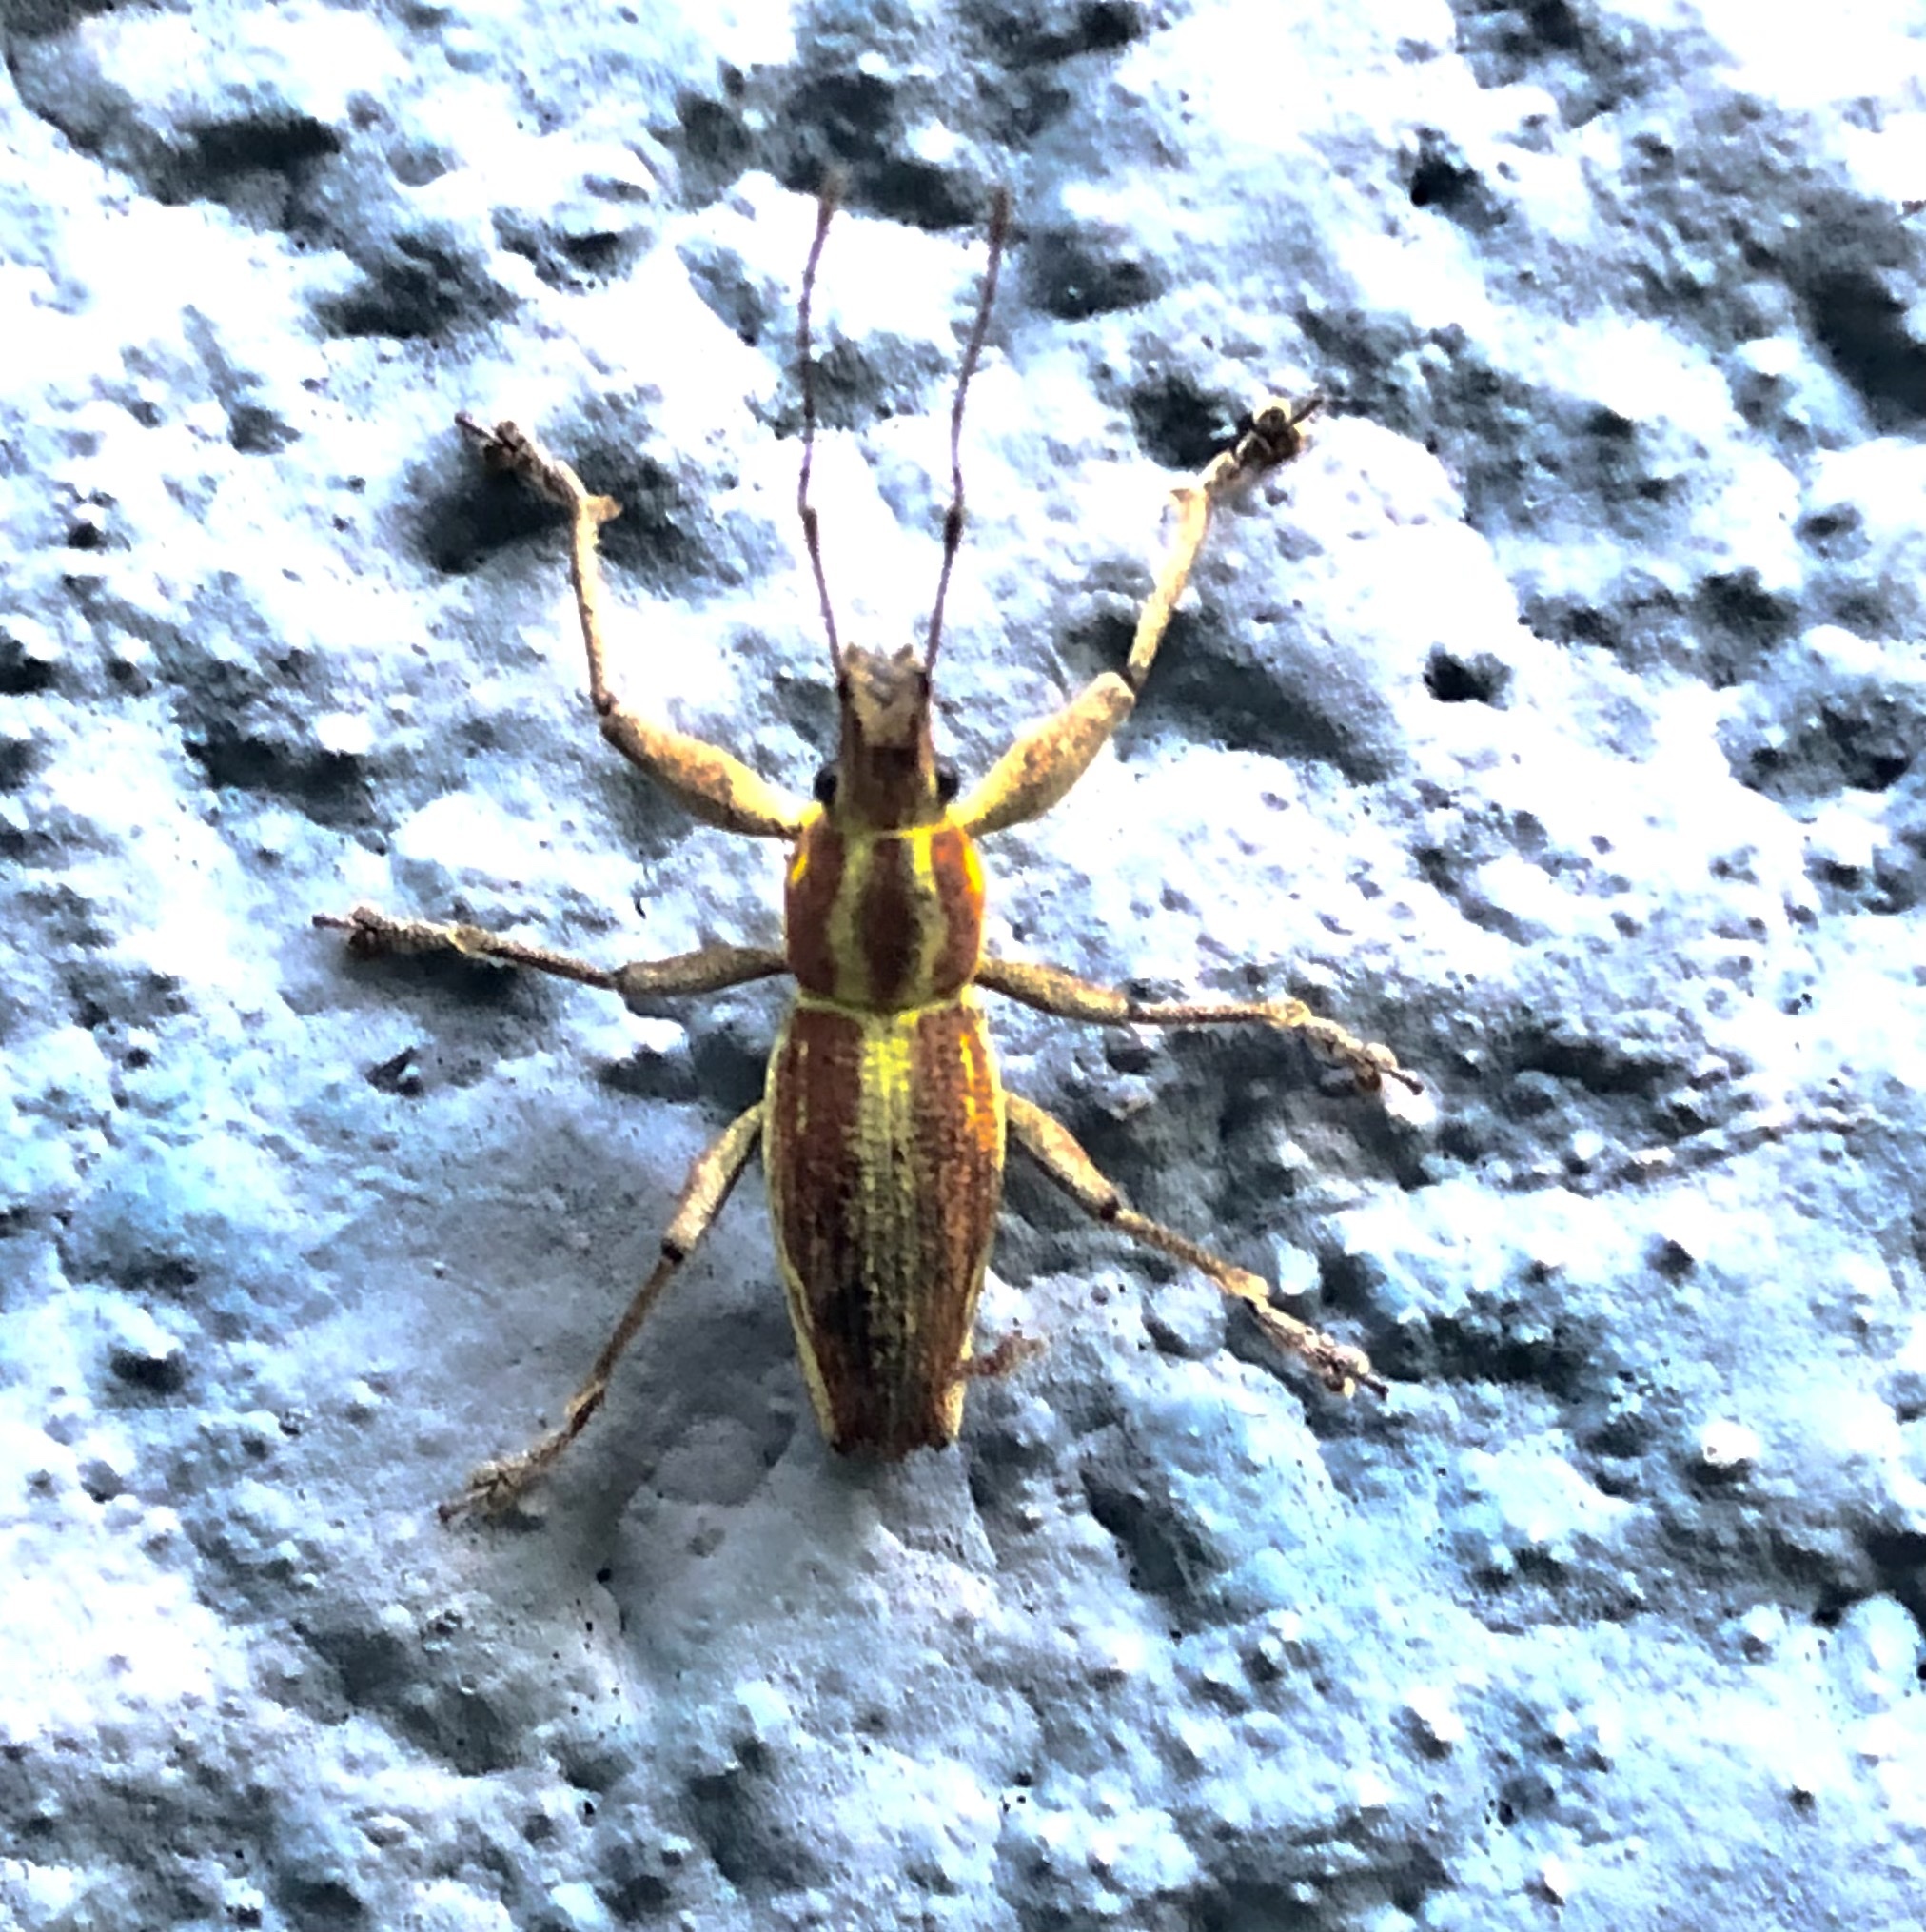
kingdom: Animalia
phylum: Arthropoda
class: Insecta
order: Coleoptera
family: Curculionidae
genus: Naupactus
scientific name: Naupactus xanthographus
